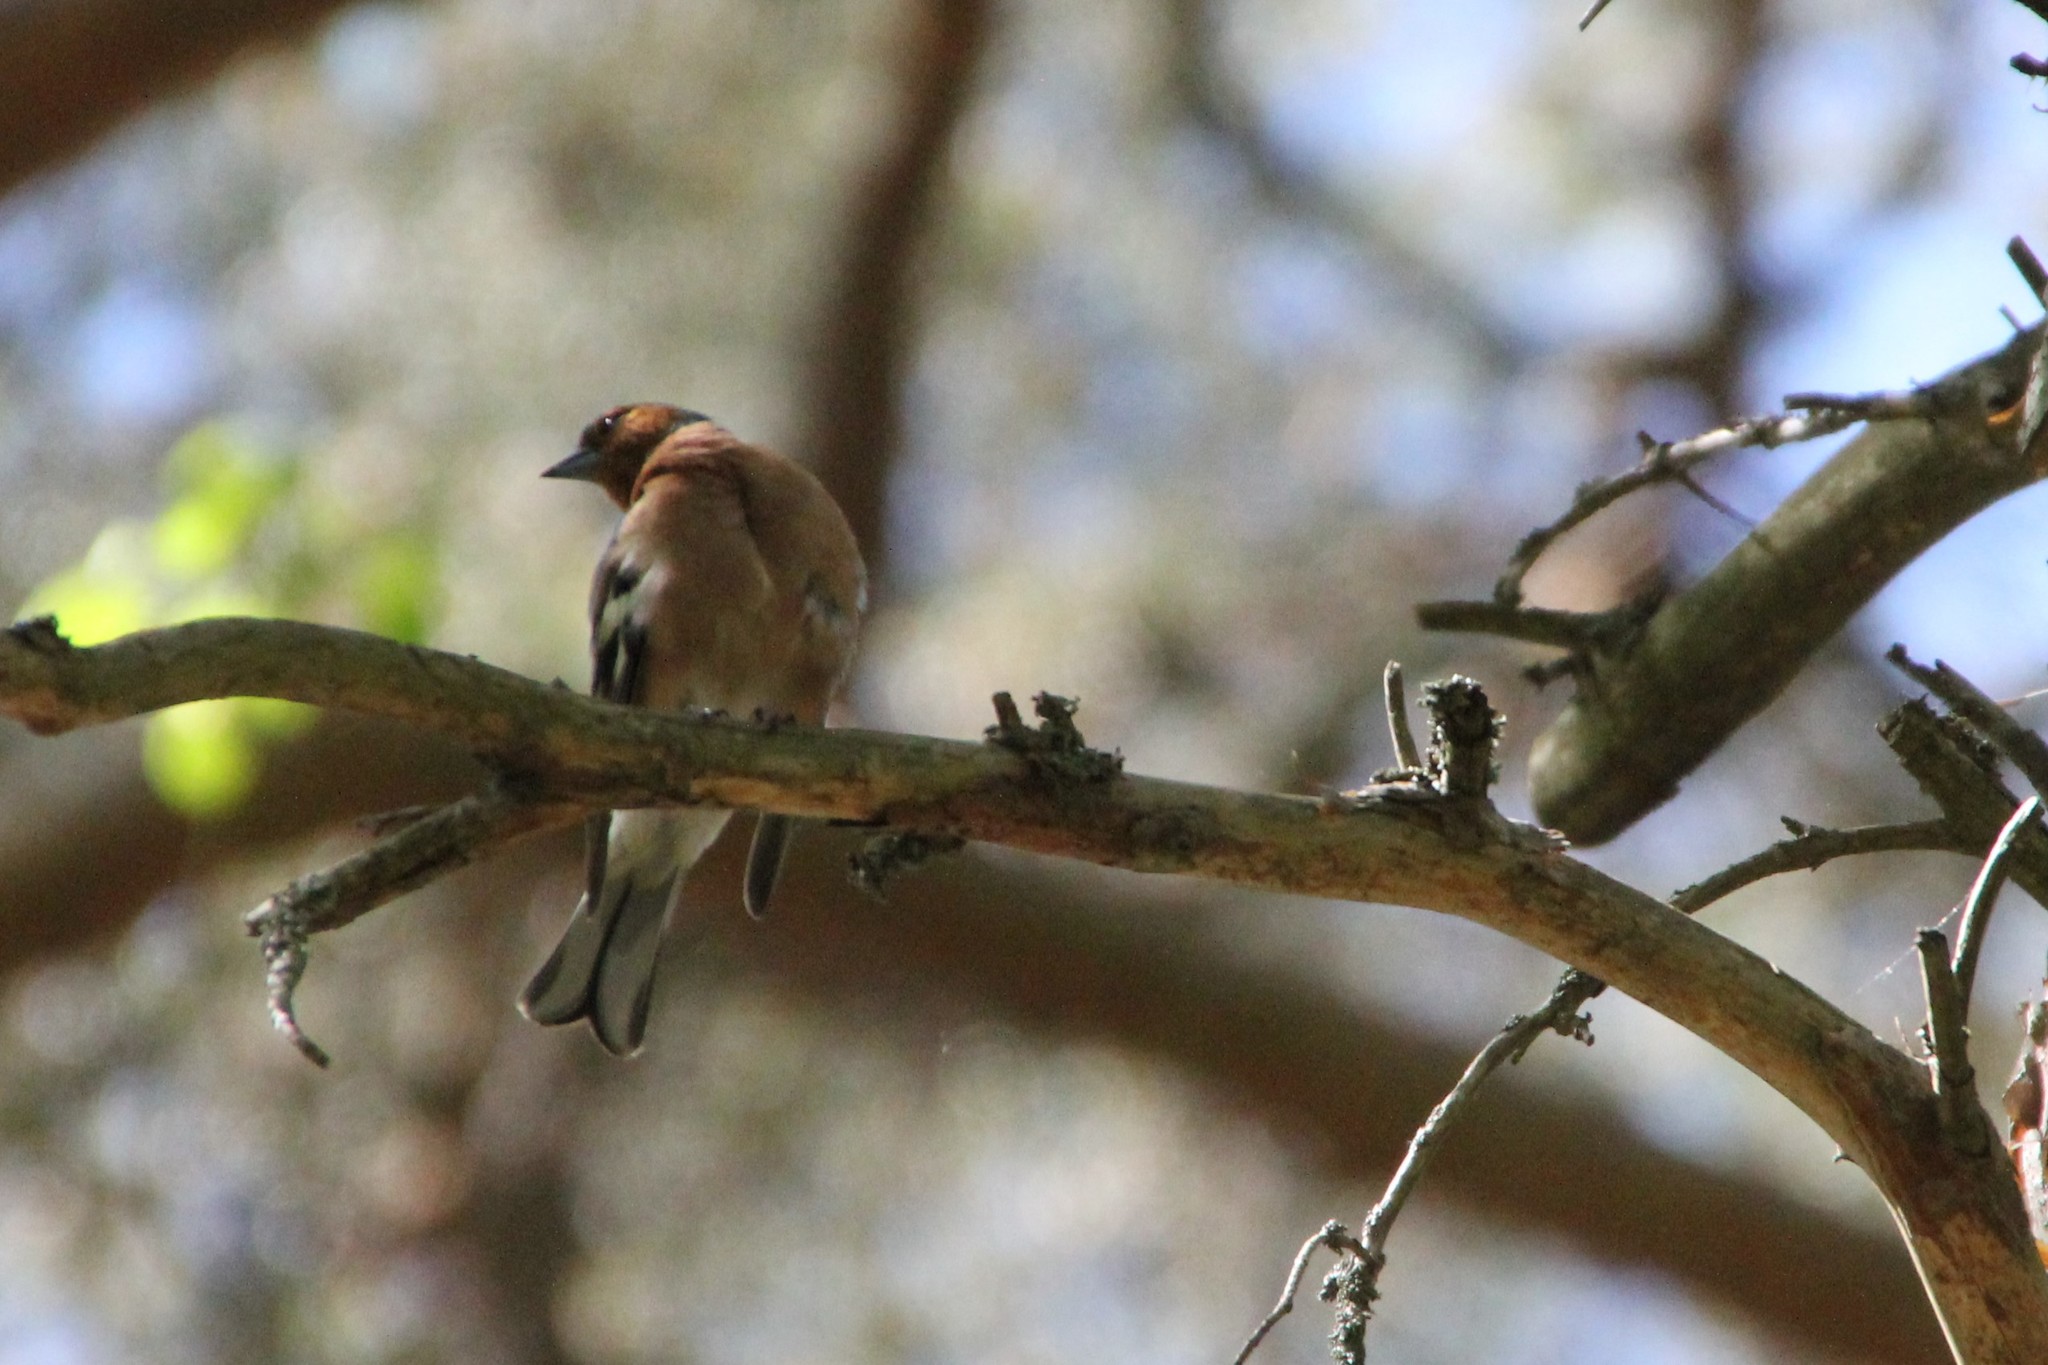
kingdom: Animalia
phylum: Chordata
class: Aves
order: Passeriformes
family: Fringillidae
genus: Fringilla
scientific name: Fringilla coelebs
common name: Common chaffinch
